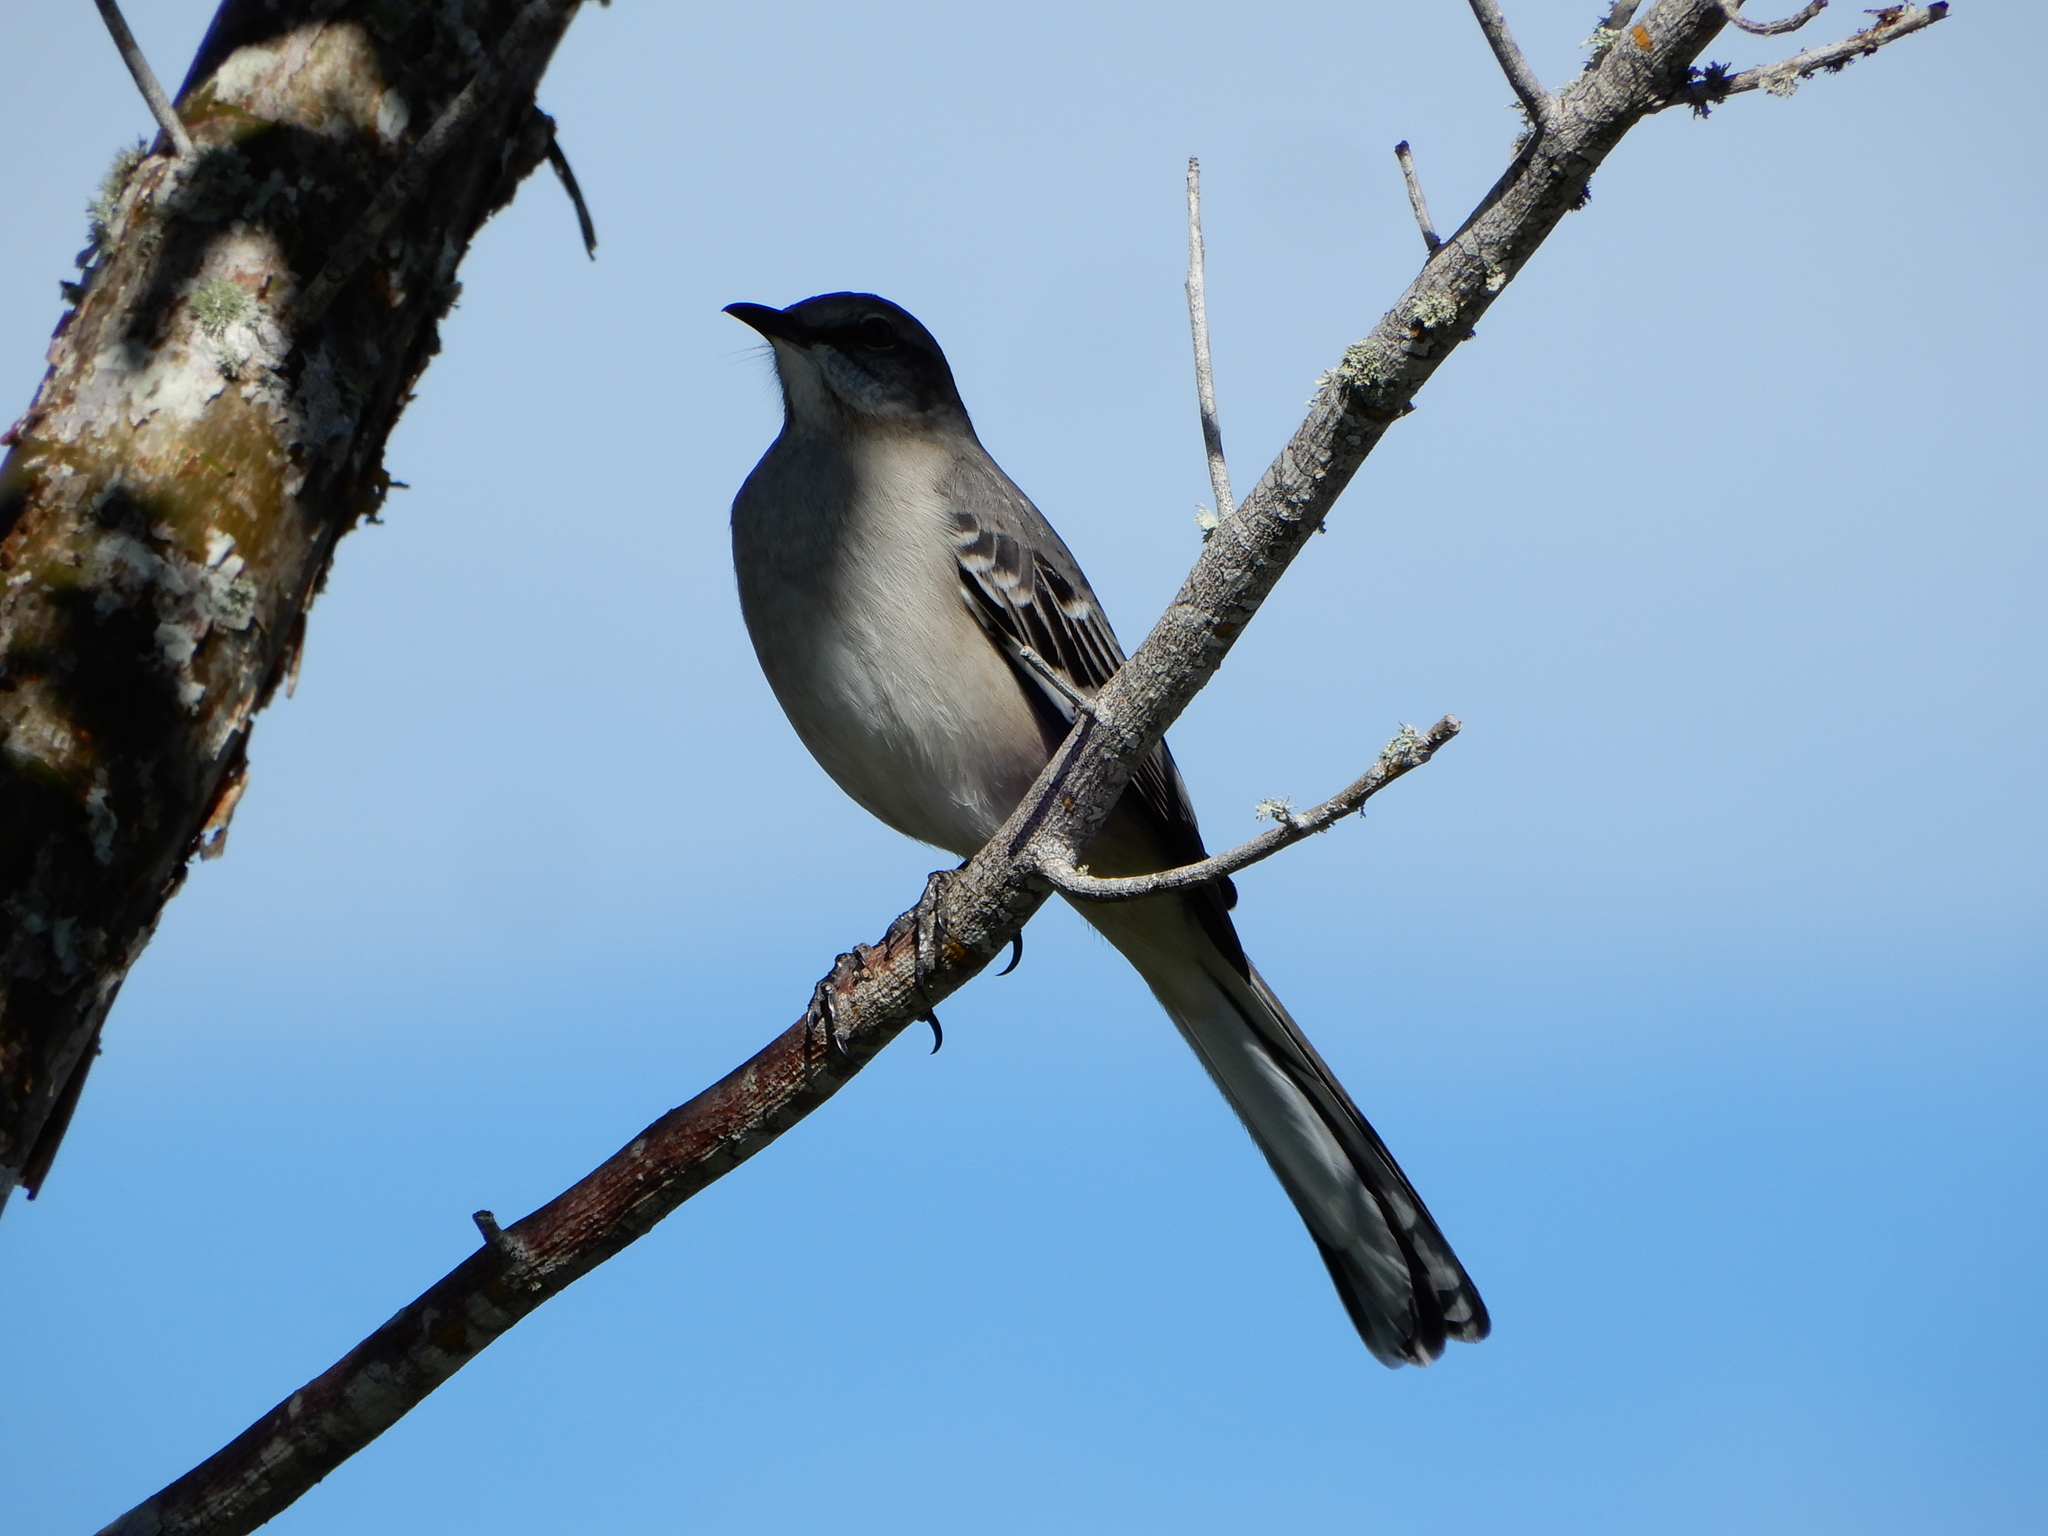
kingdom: Animalia
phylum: Chordata
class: Aves
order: Passeriformes
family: Mimidae
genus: Mimus
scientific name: Mimus polyglottos
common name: Northern mockingbird
